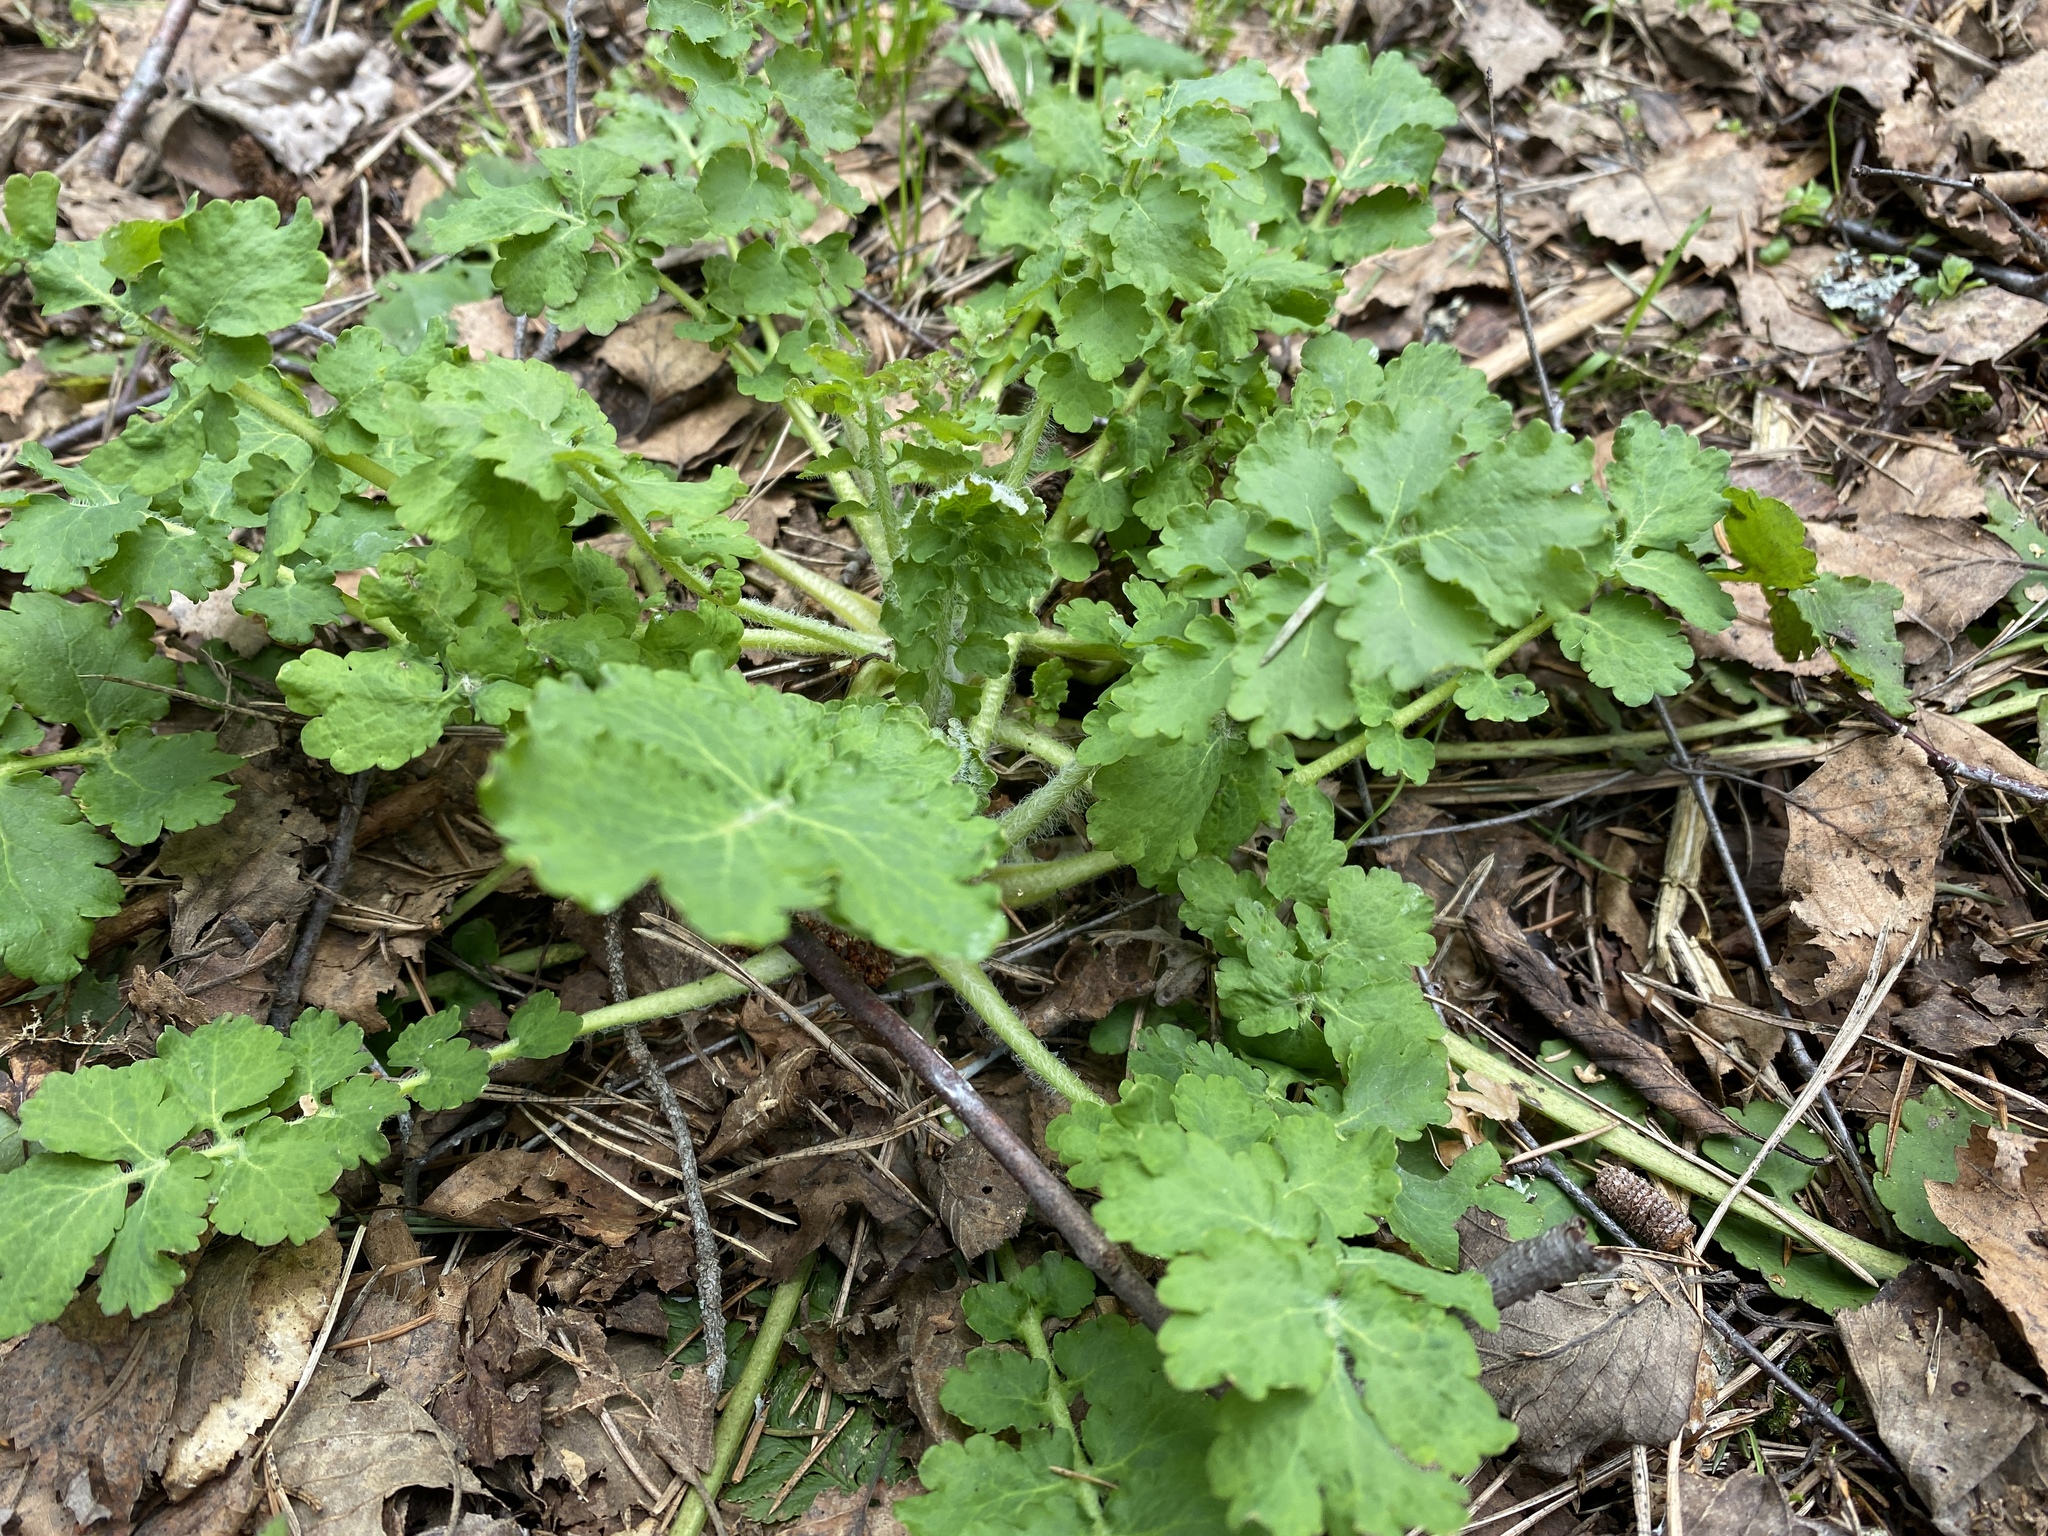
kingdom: Plantae
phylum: Tracheophyta
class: Magnoliopsida
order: Ranunculales
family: Papaveraceae
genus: Chelidonium
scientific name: Chelidonium majus
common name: Greater celandine
